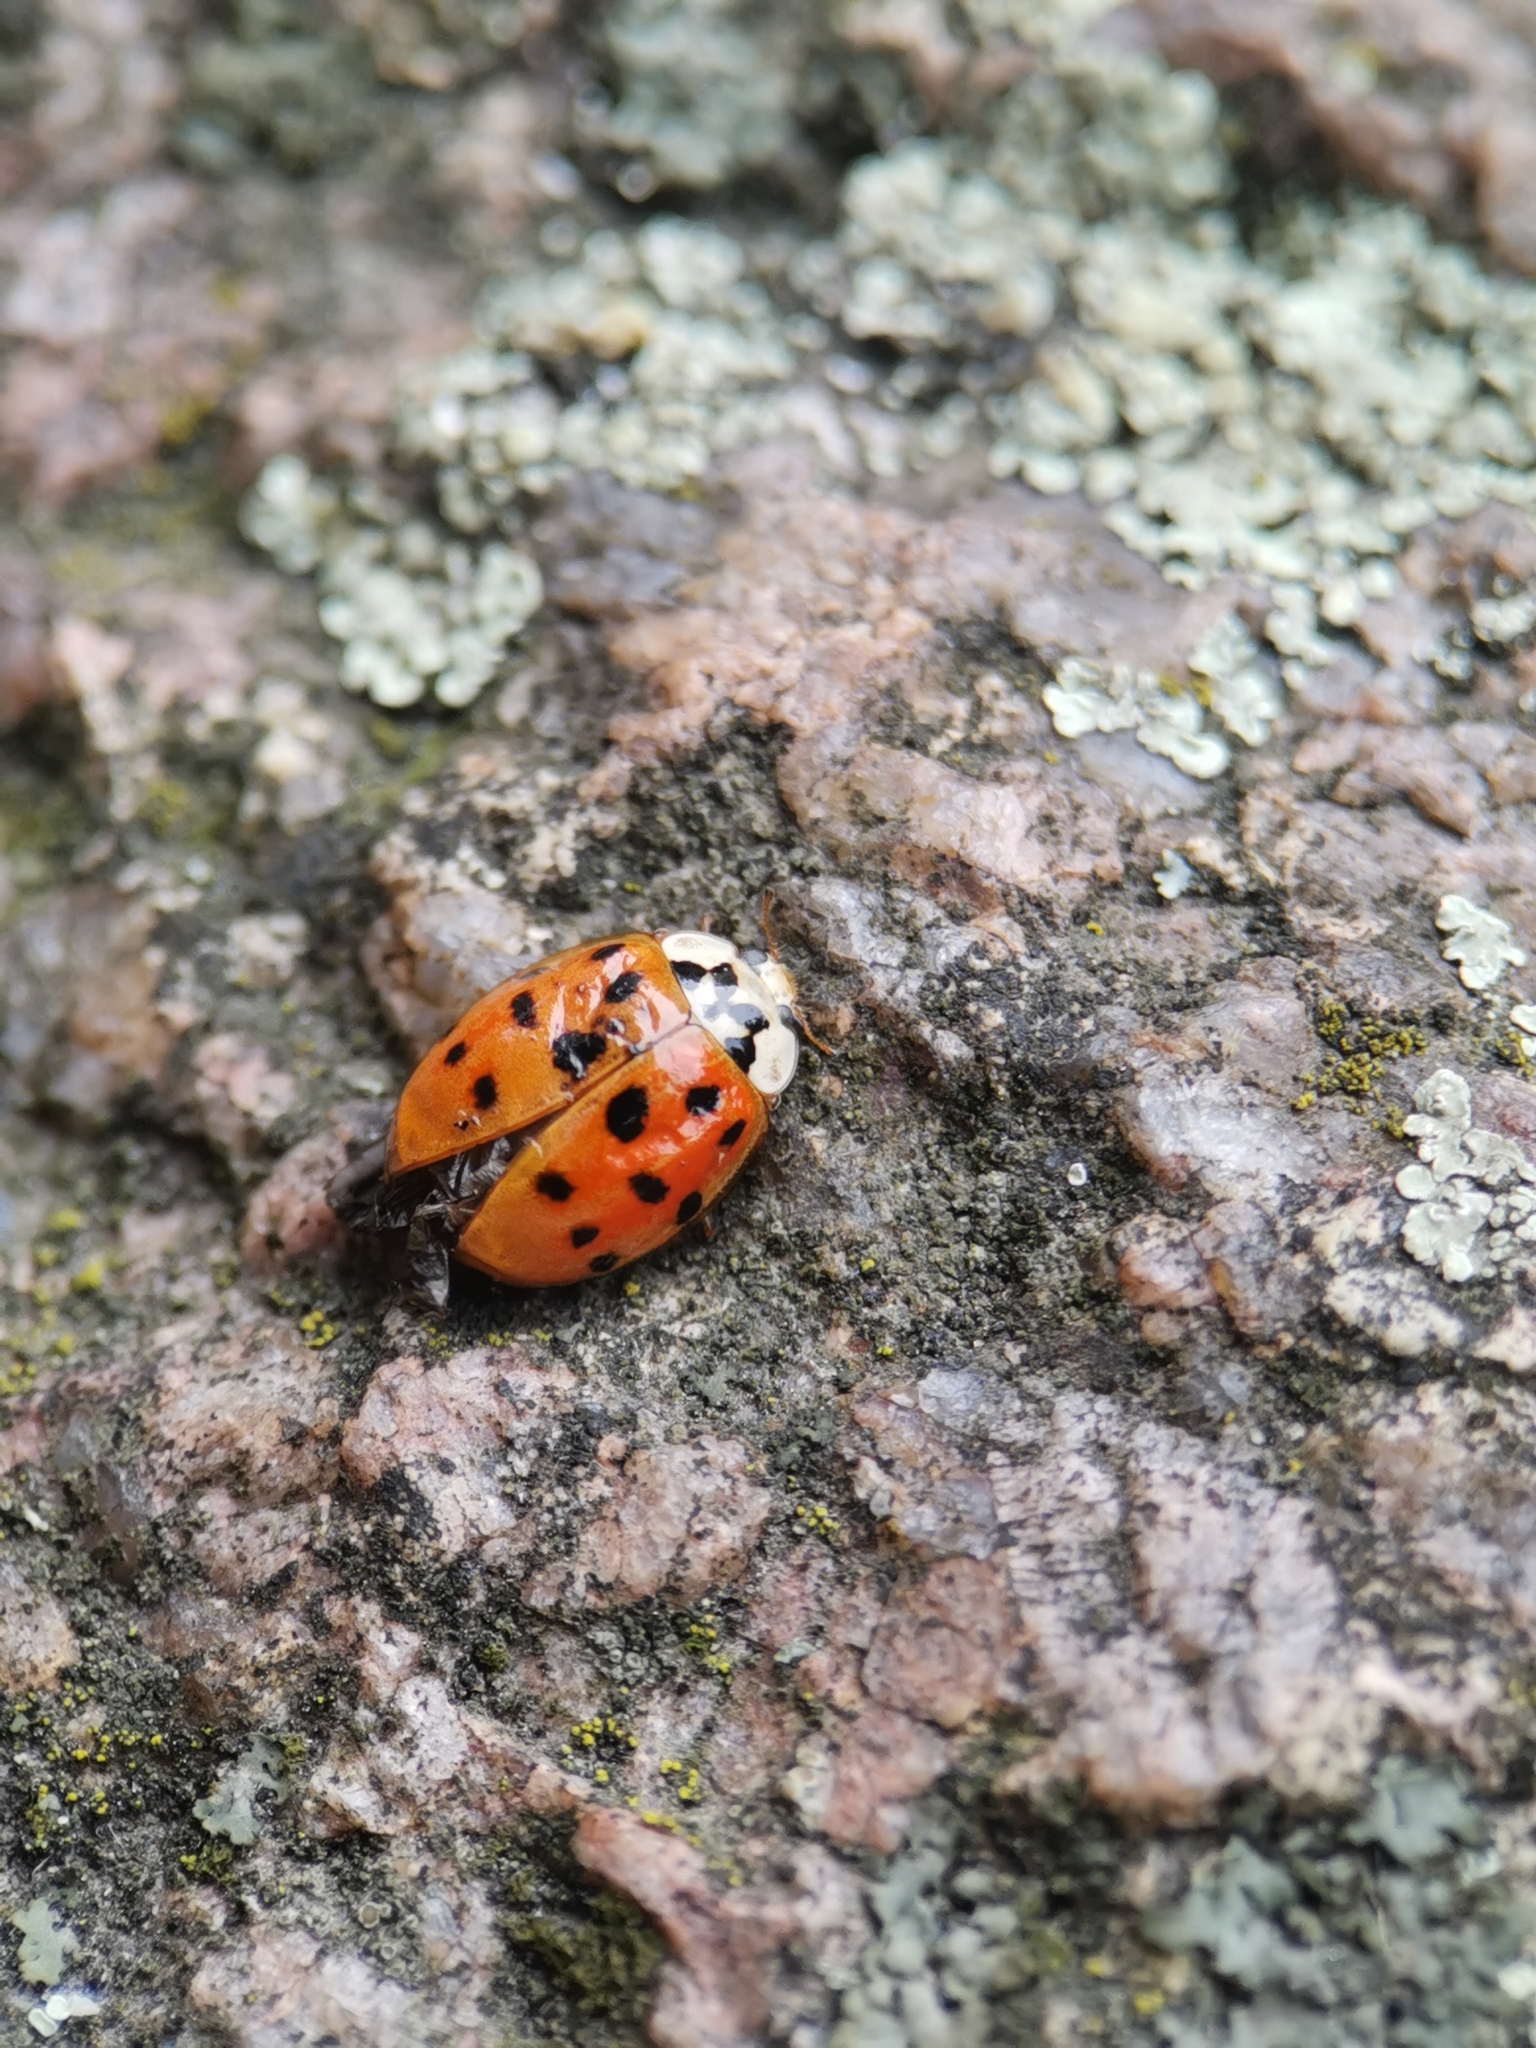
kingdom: Animalia
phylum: Arthropoda
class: Insecta
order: Coleoptera
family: Coccinellidae
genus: Harmonia
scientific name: Harmonia axyridis
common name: Harlequin ladybird
